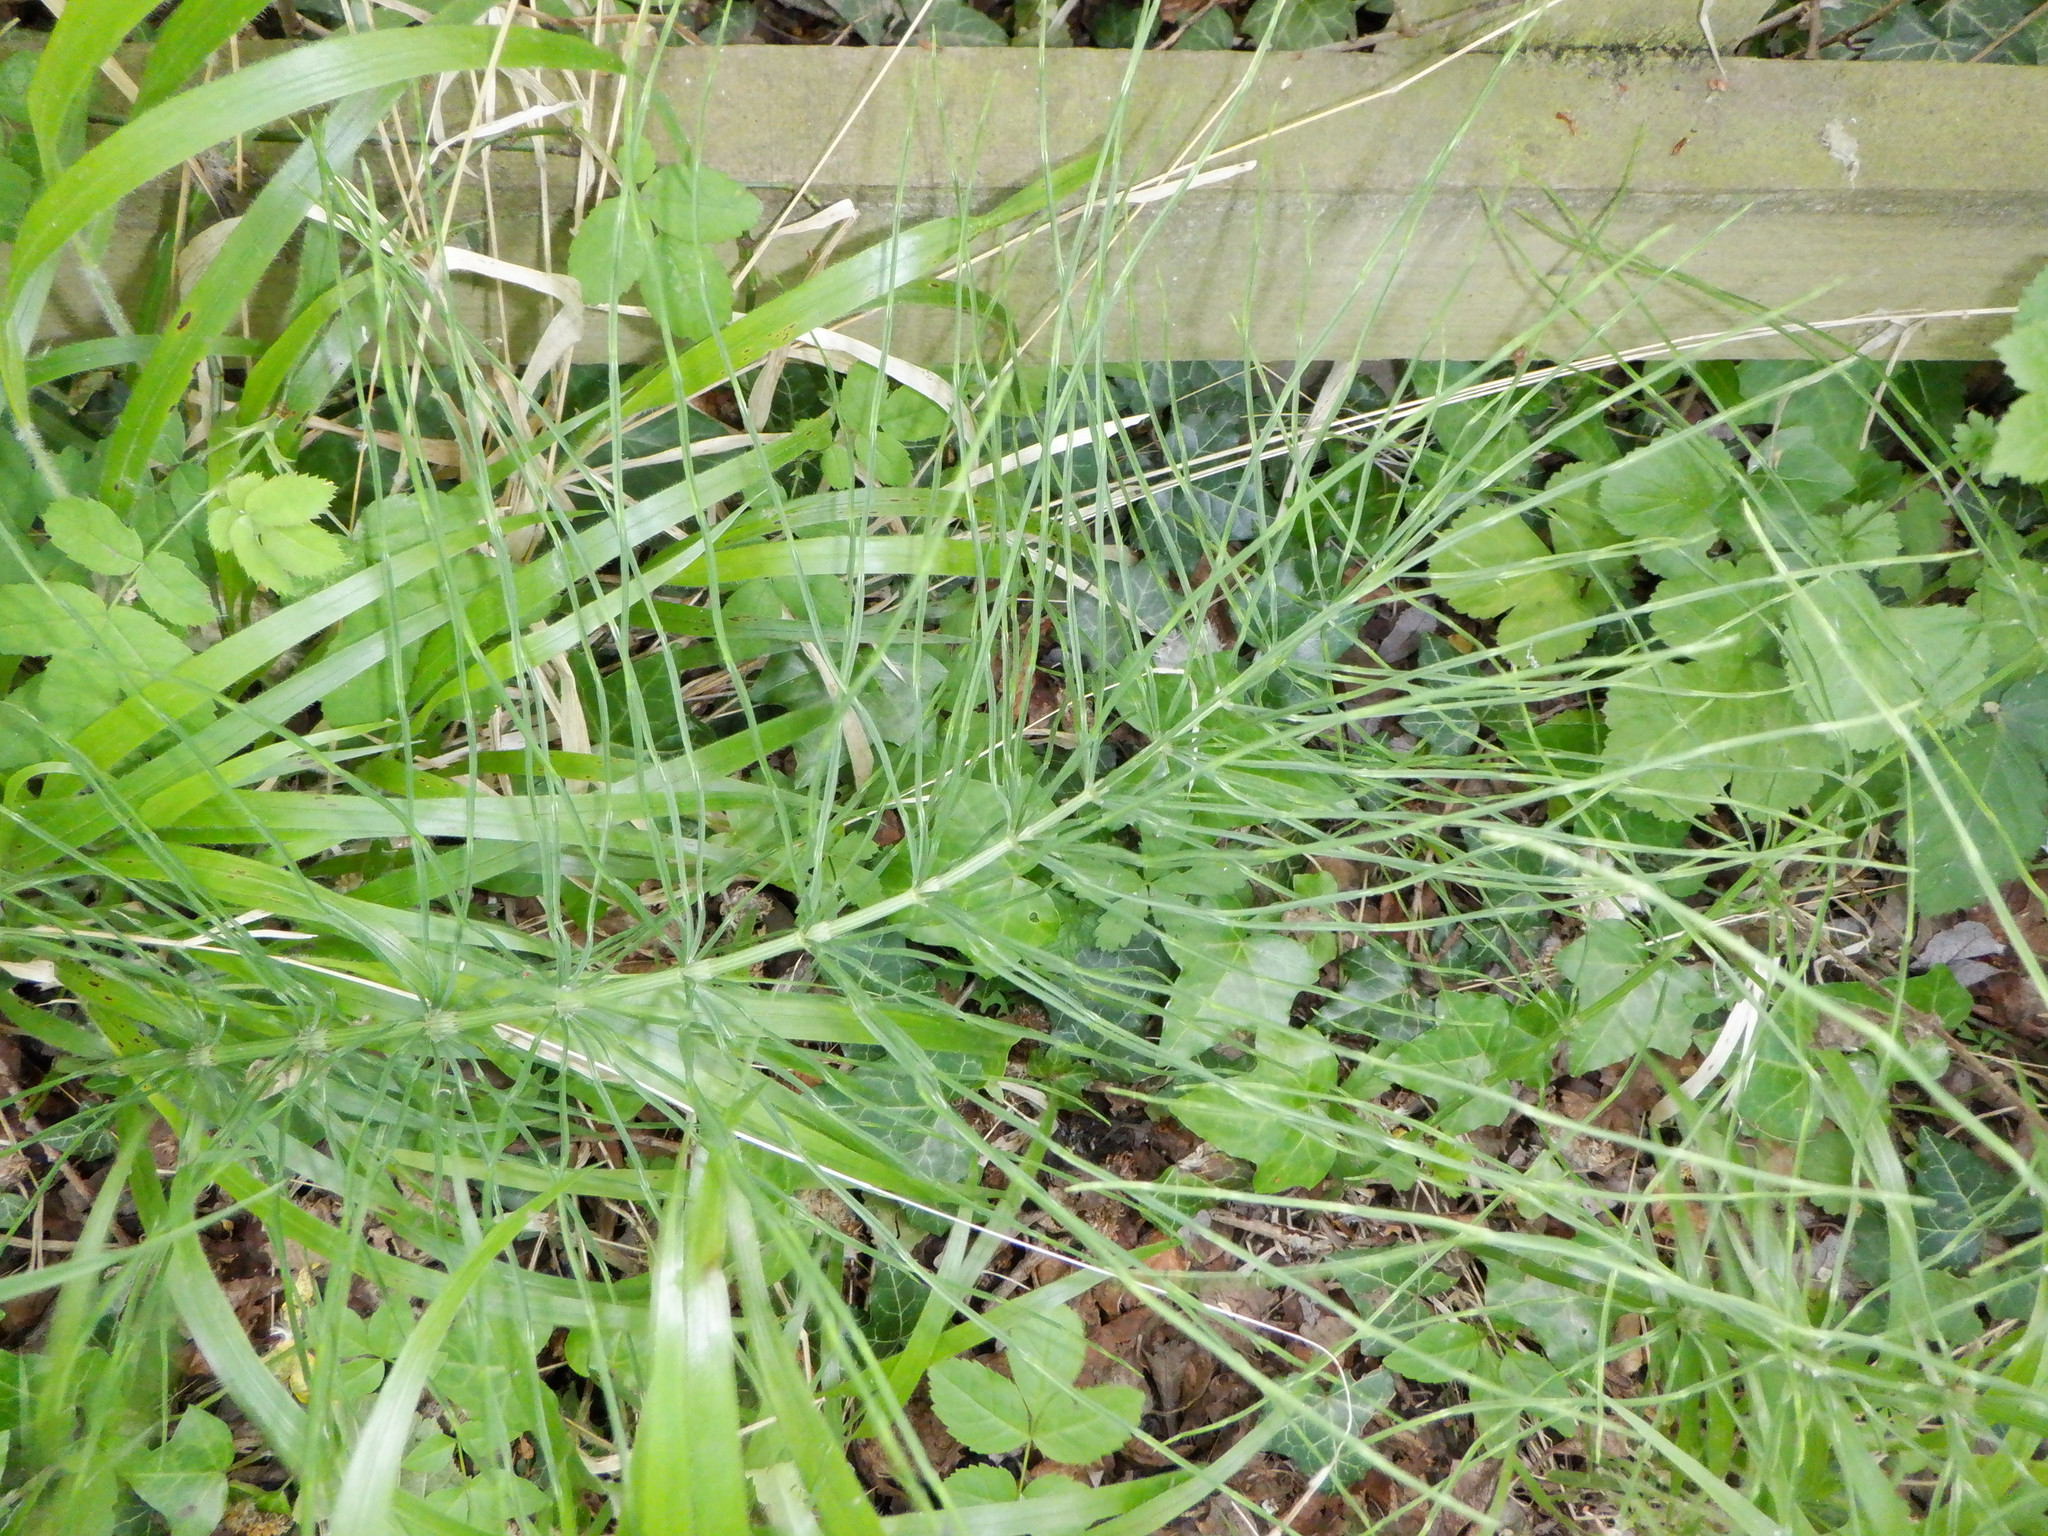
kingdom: Plantae
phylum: Tracheophyta
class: Polypodiopsida
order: Equisetales
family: Equisetaceae
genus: Equisetum
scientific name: Equisetum arvense
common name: Field horsetail
